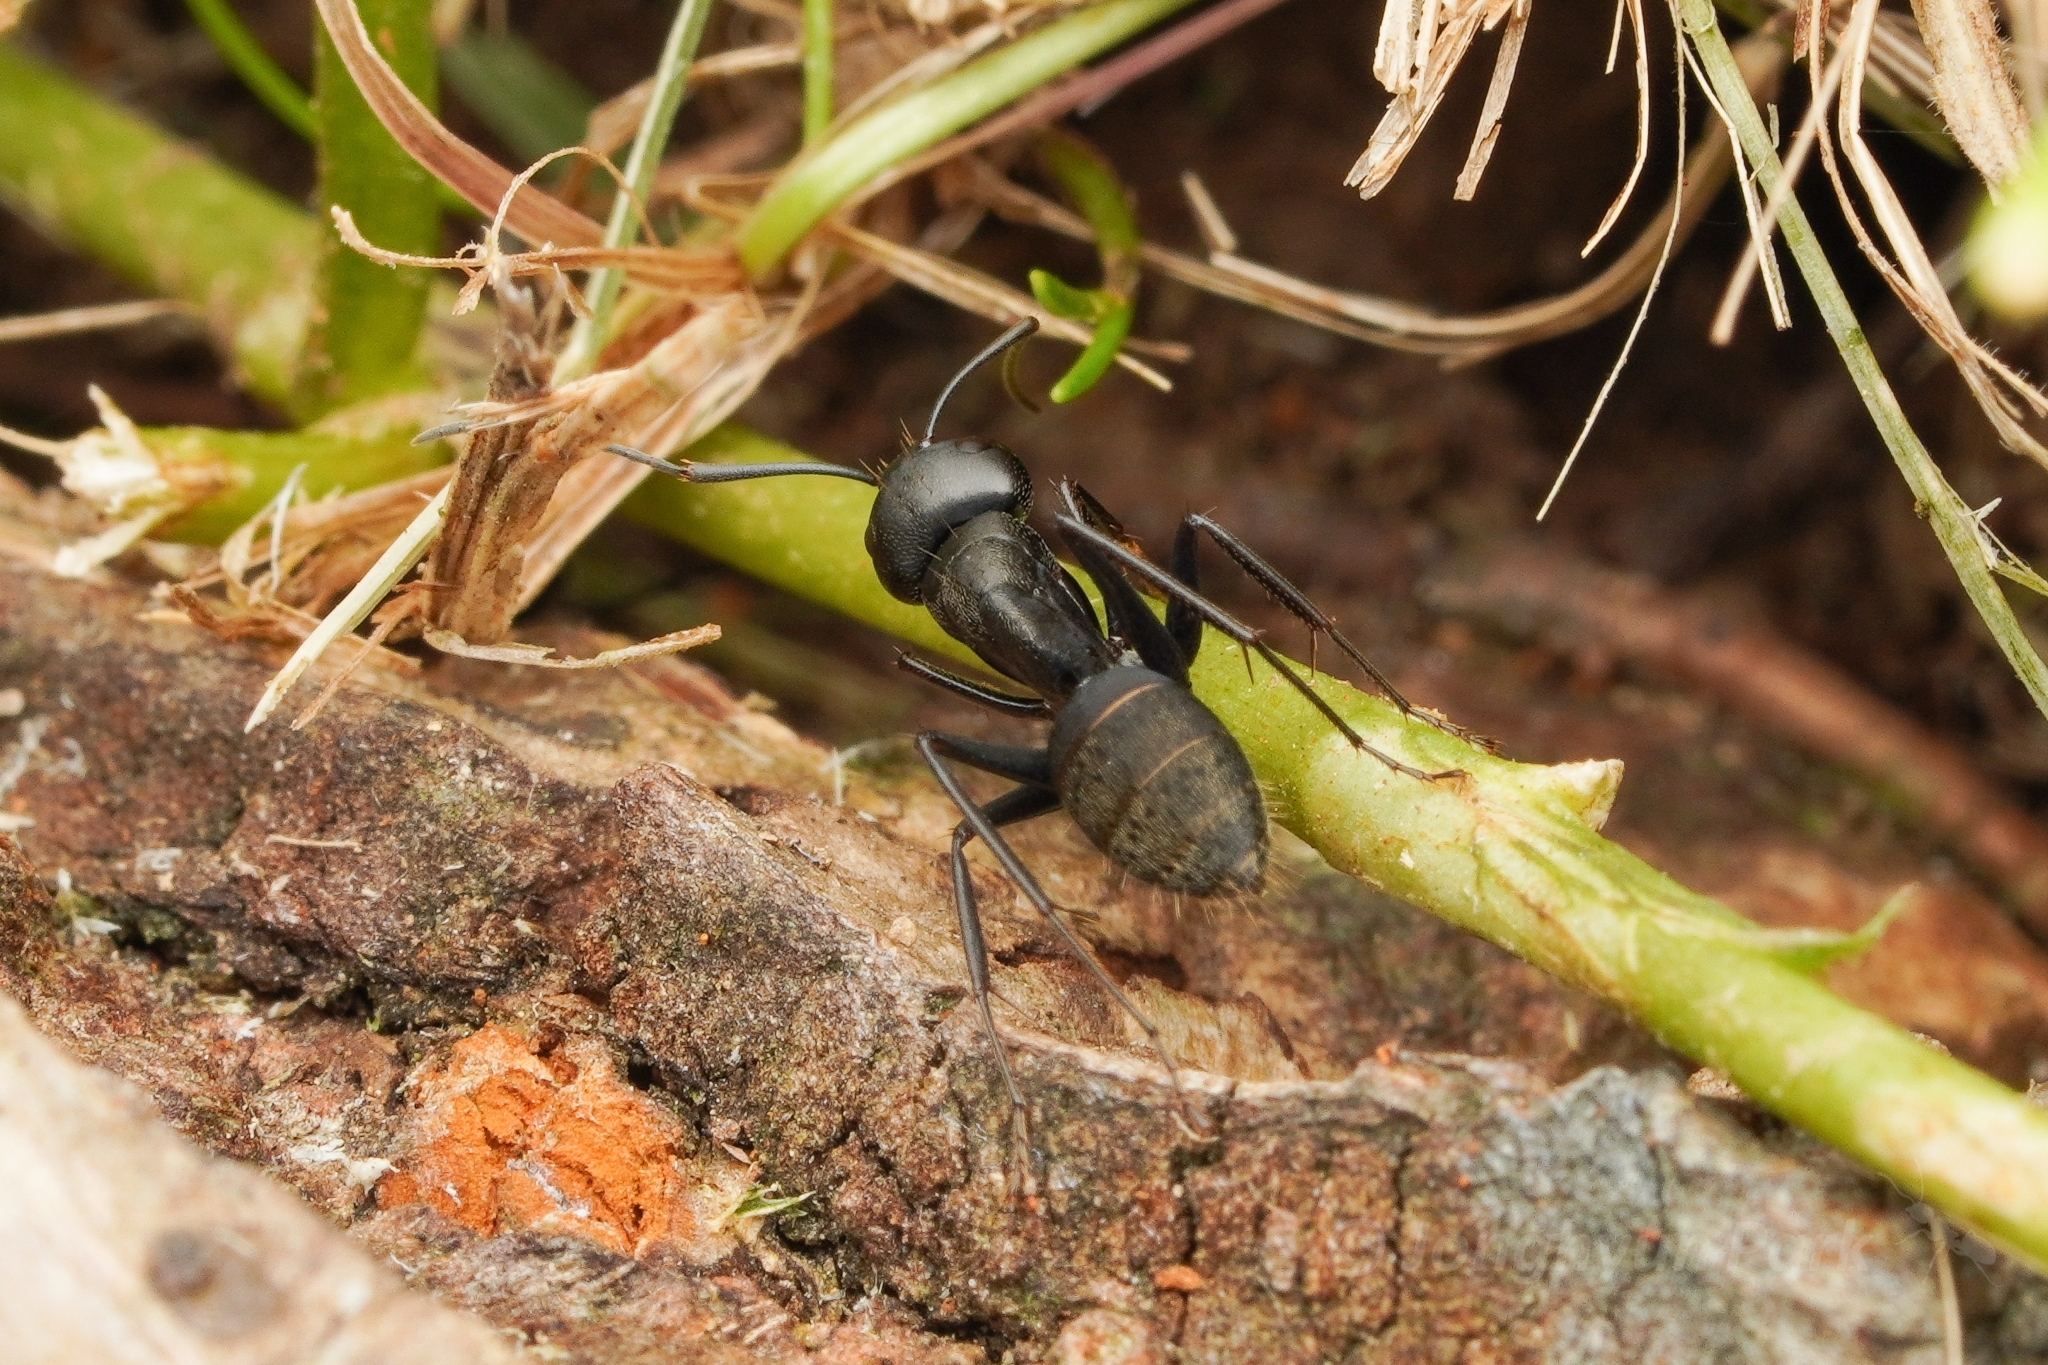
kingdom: Animalia
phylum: Arthropoda
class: Insecta
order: Hymenoptera
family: Formicidae
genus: Camponotus
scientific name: Camponotus japonicus
